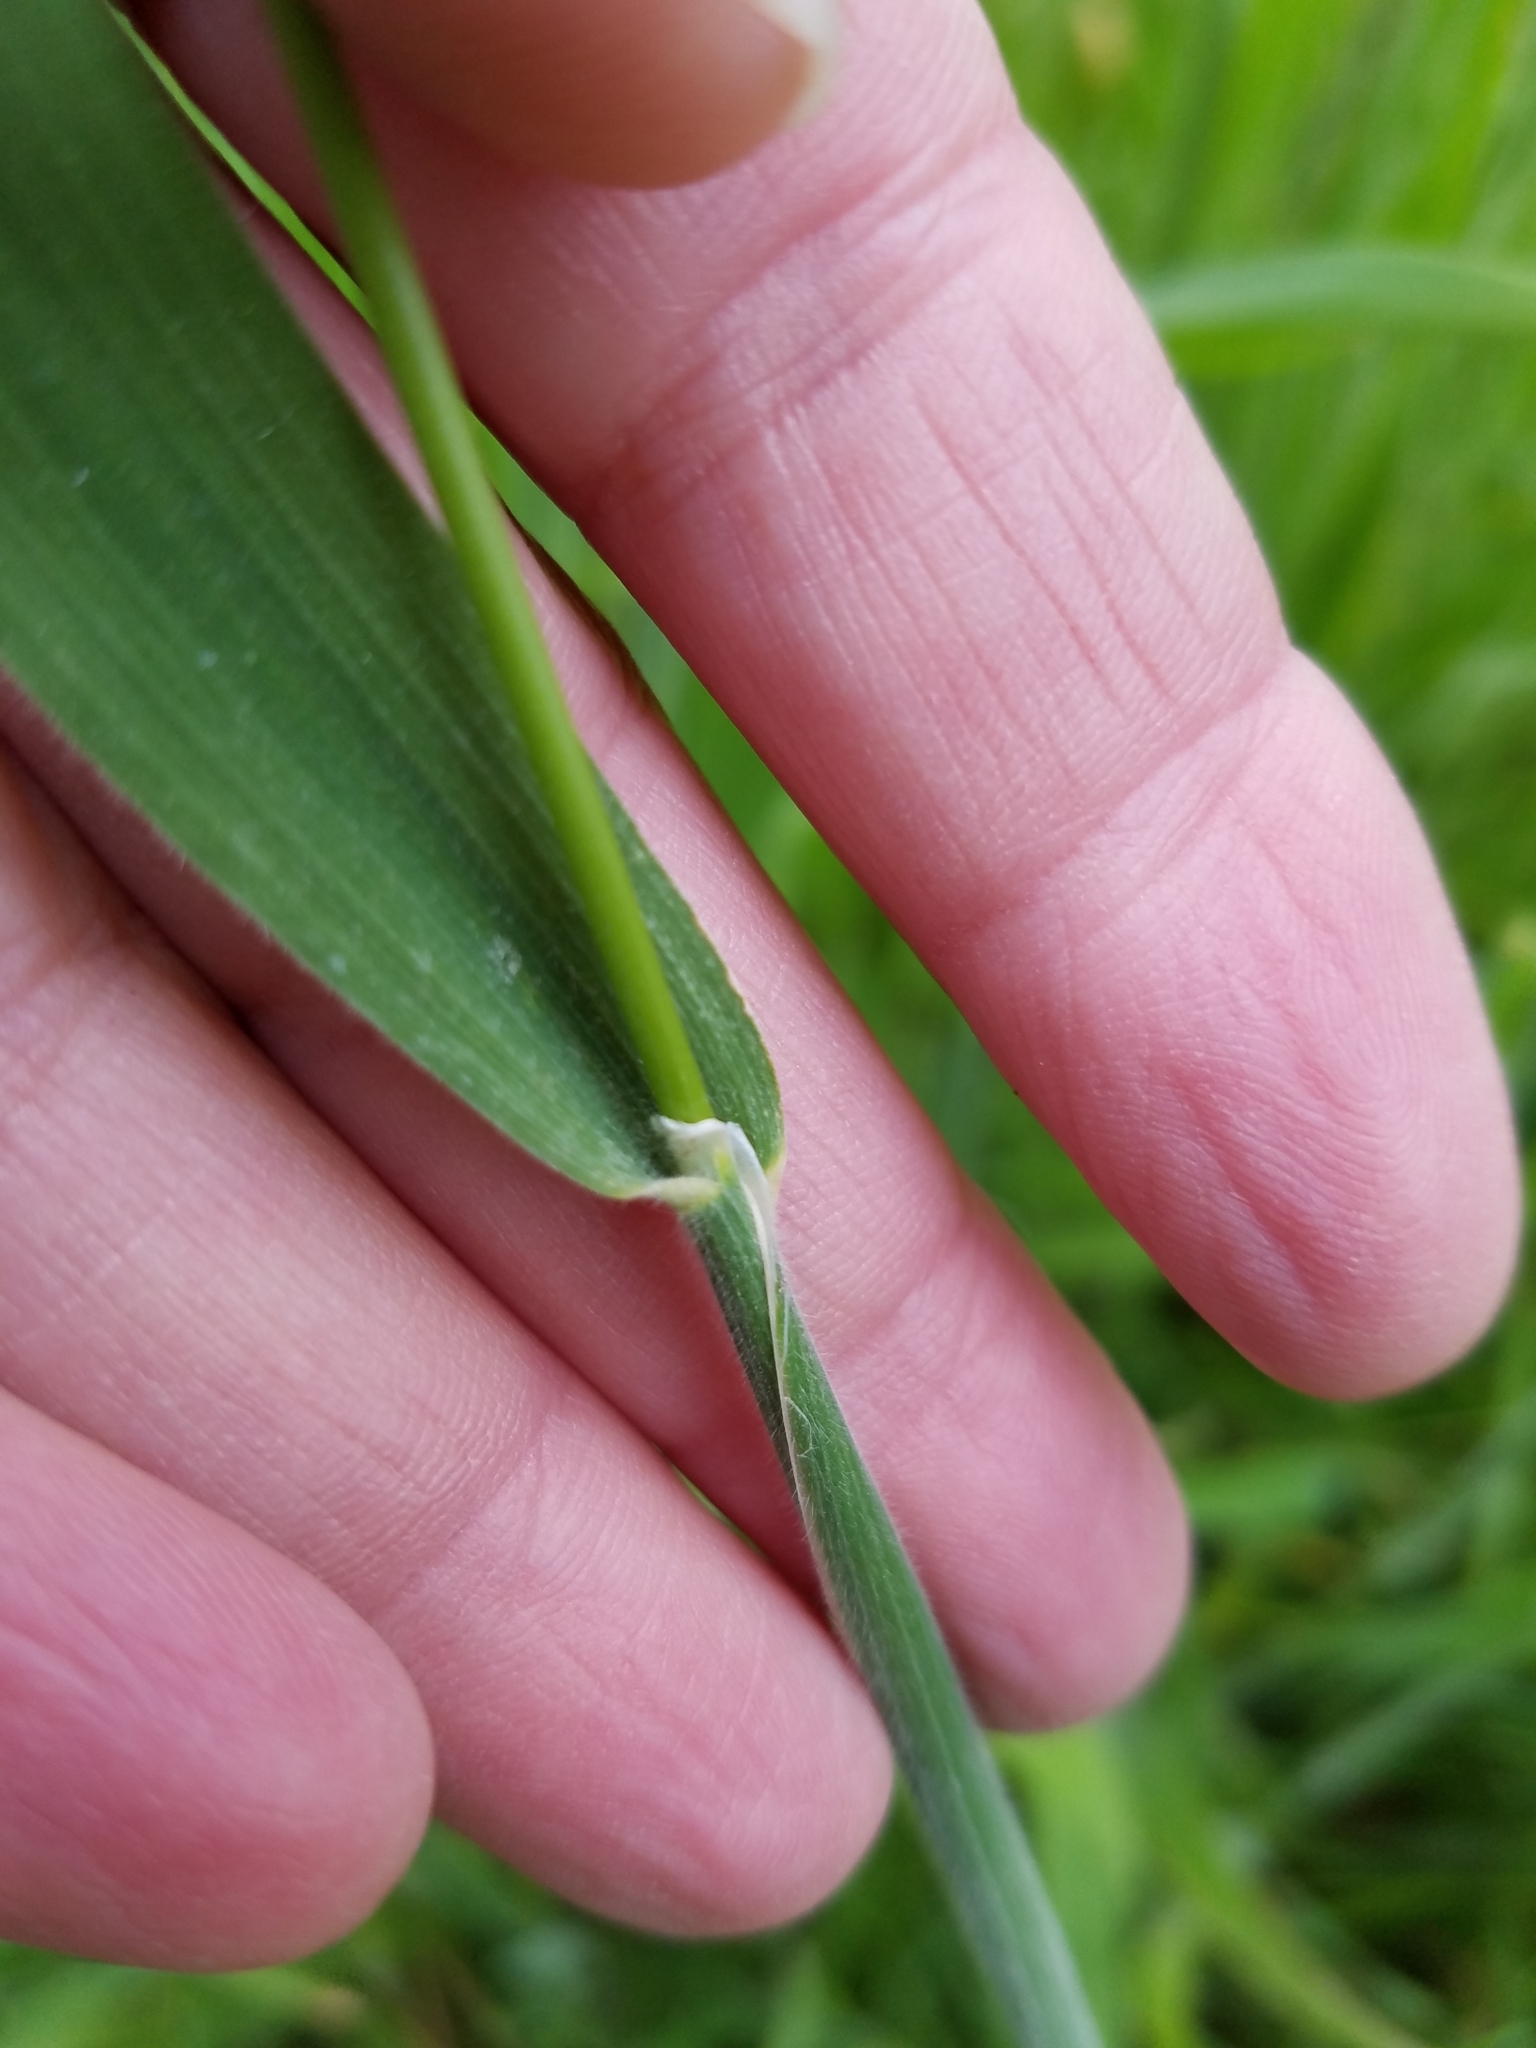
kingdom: Plantae
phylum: Tracheophyta
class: Liliopsida
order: Poales
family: Poaceae
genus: Holcus
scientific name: Holcus lanatus
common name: Yorkshire-fog
